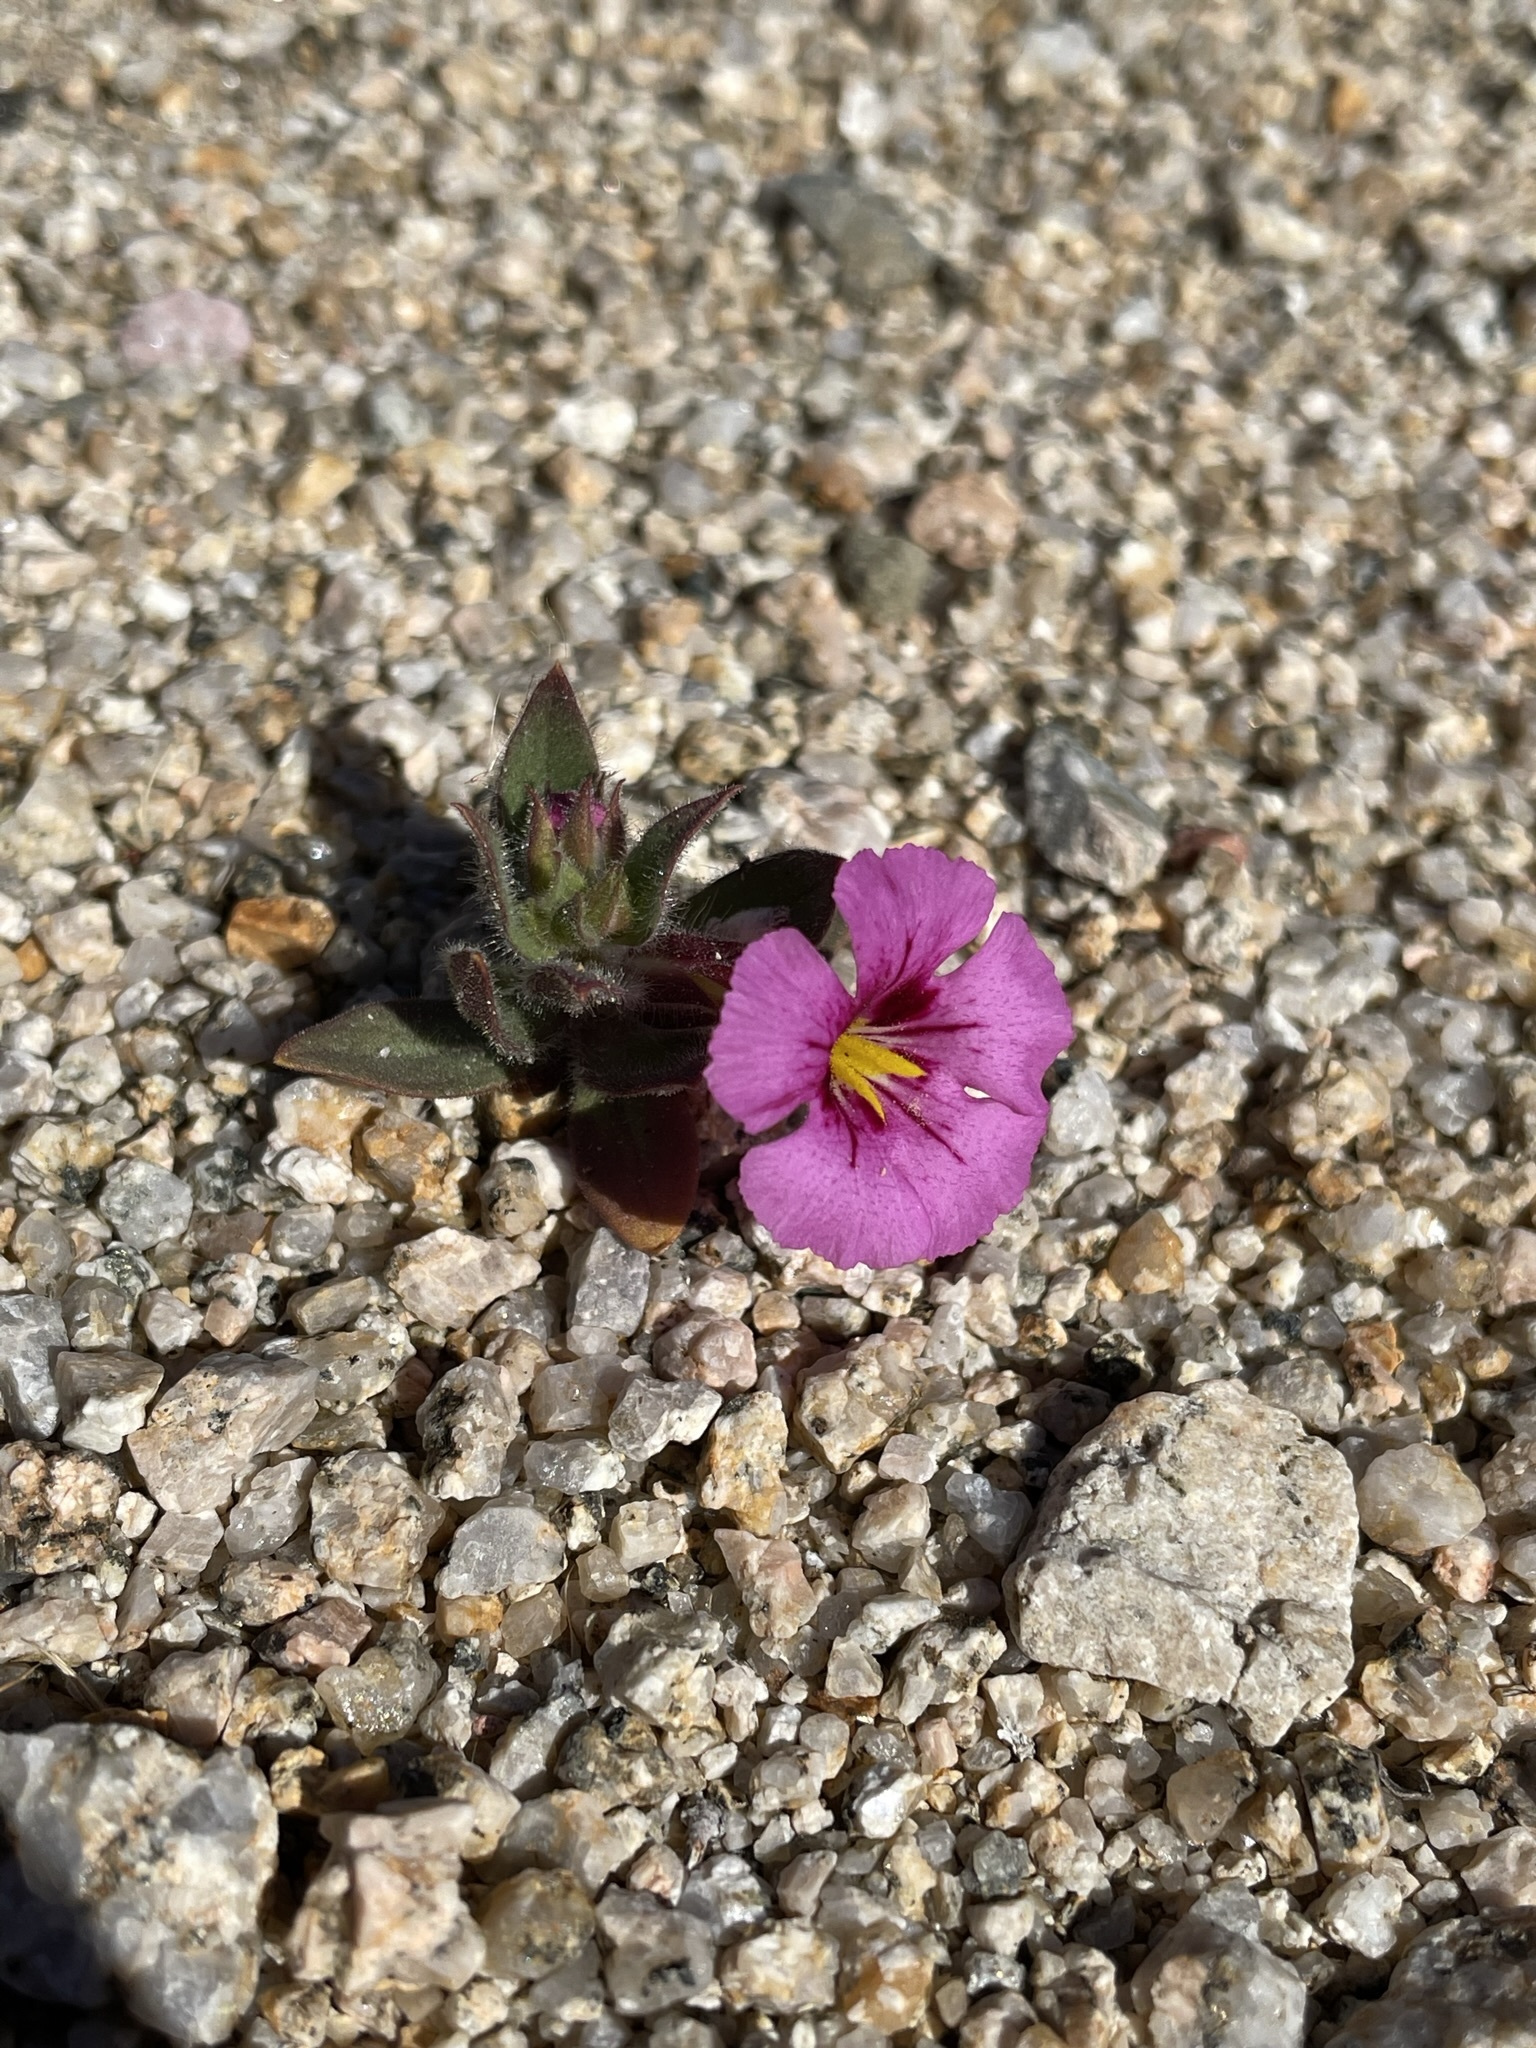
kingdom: Plantae
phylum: Tracheophyta
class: Magnoliopsida
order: Lamiales
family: Phrymaceae
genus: Diplacus
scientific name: Diplacus bigelovii
